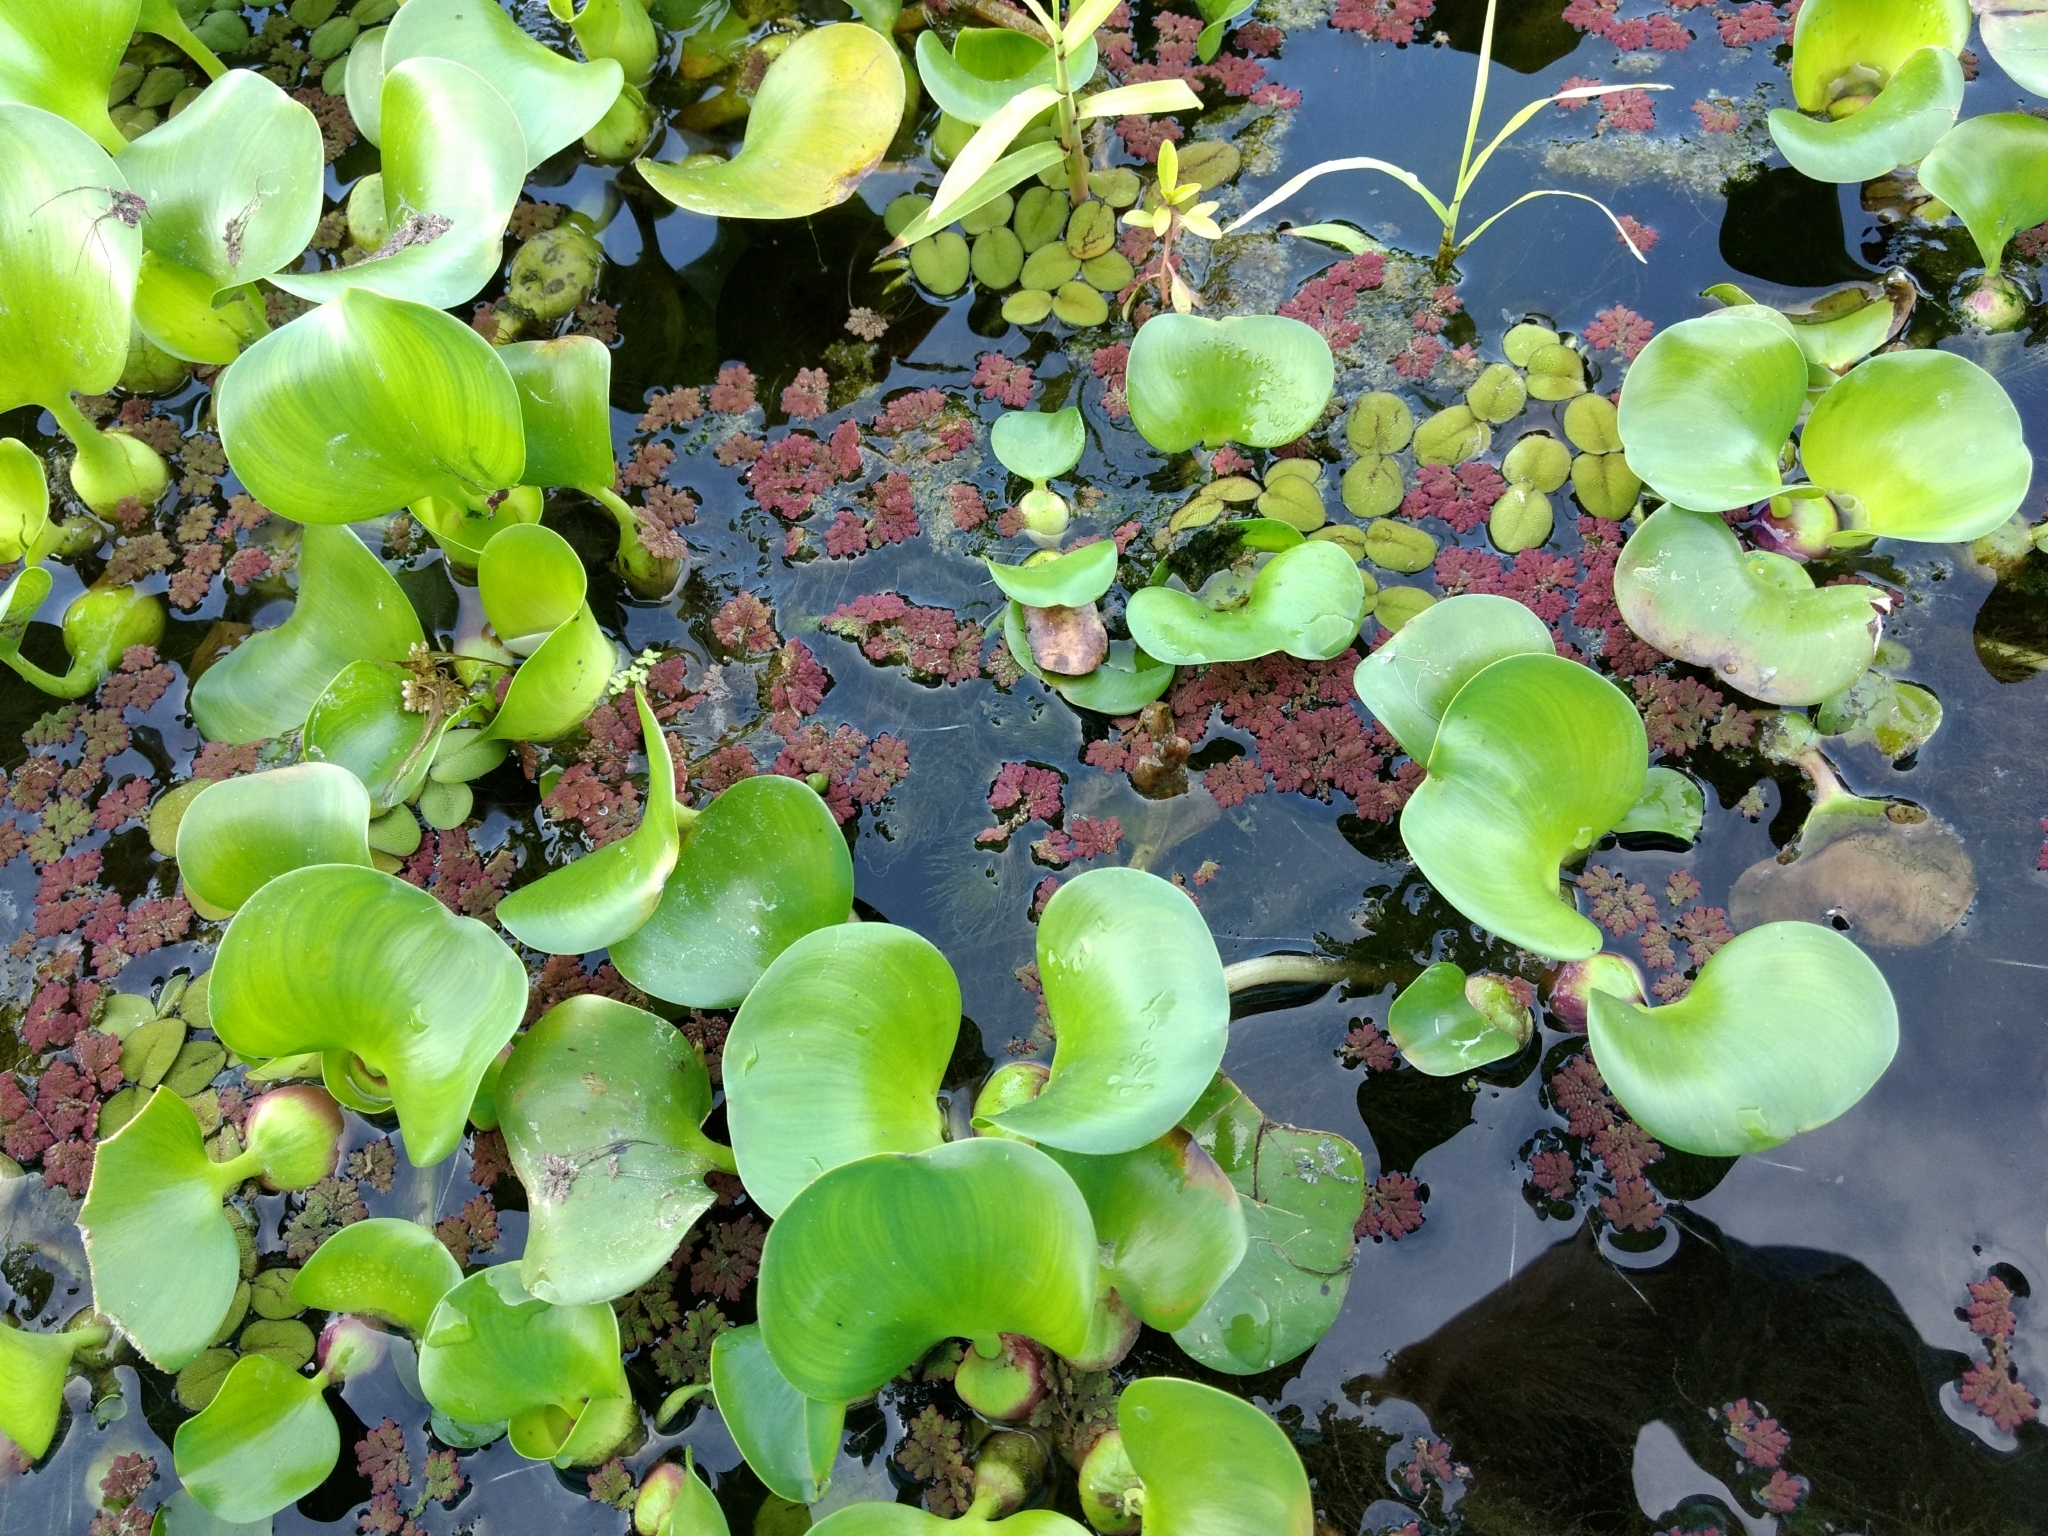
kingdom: Plantae
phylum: Tracheophyta
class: Liliopsida
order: Commelinales
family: Pontederiaceae
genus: Pontederia
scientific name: Pontederia crassipes
